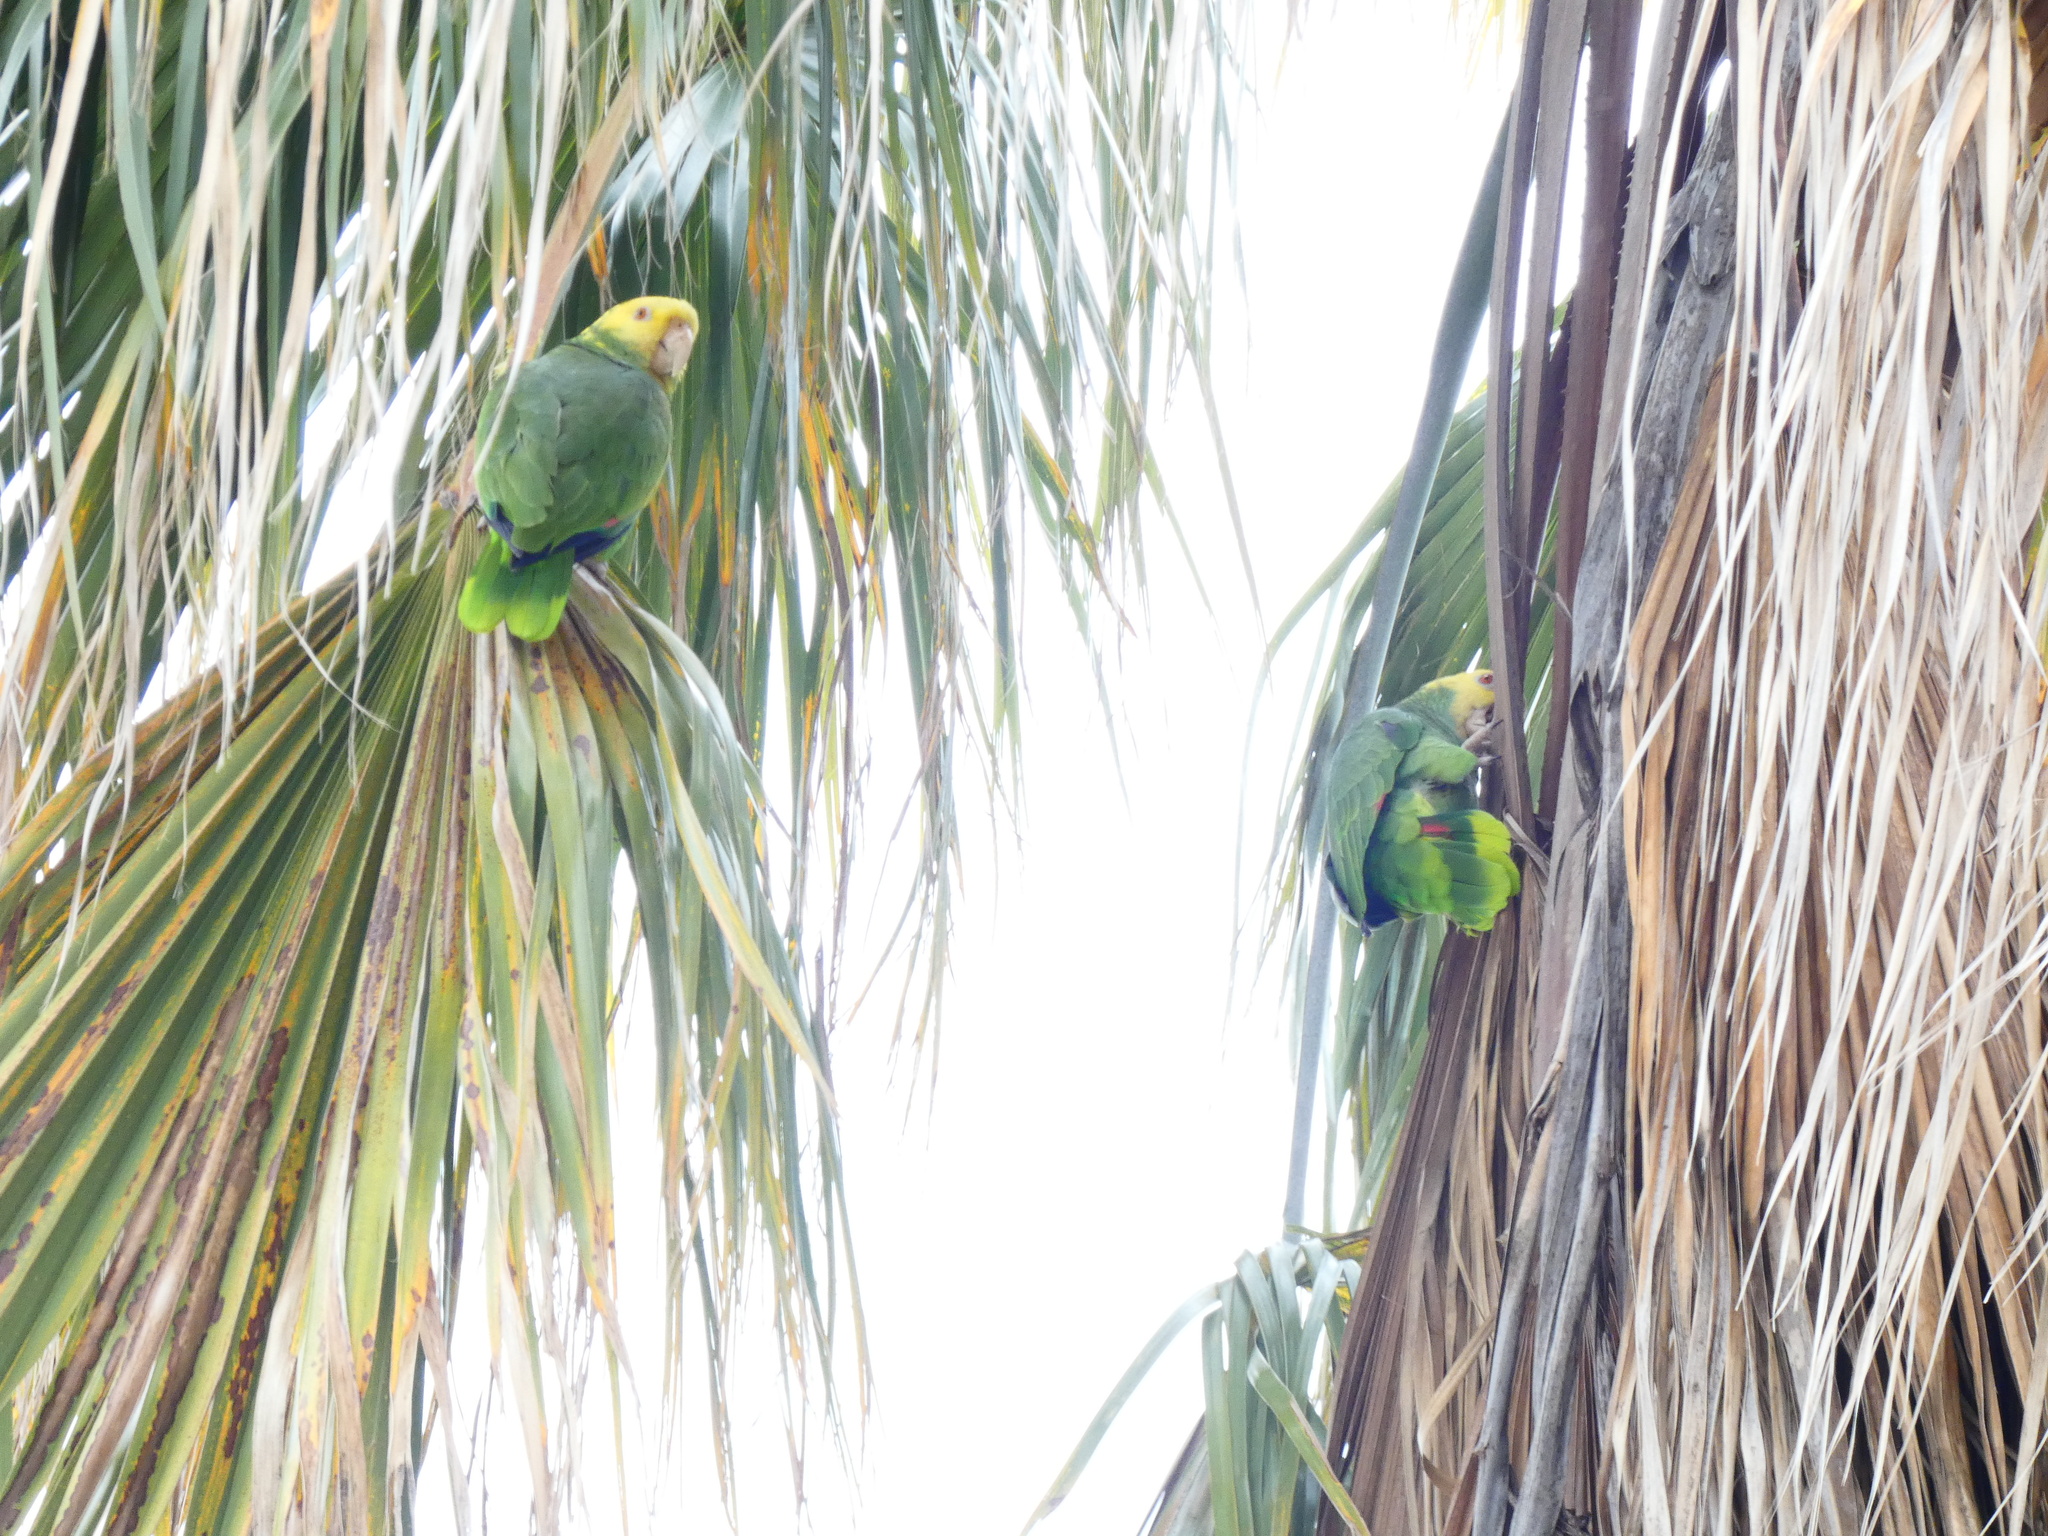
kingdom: Animalia
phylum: Chordata
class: Aves
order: Psittaciformes
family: Psittacidae
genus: Amazona
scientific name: Amazona oratrix
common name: Yellow-headed amazon
